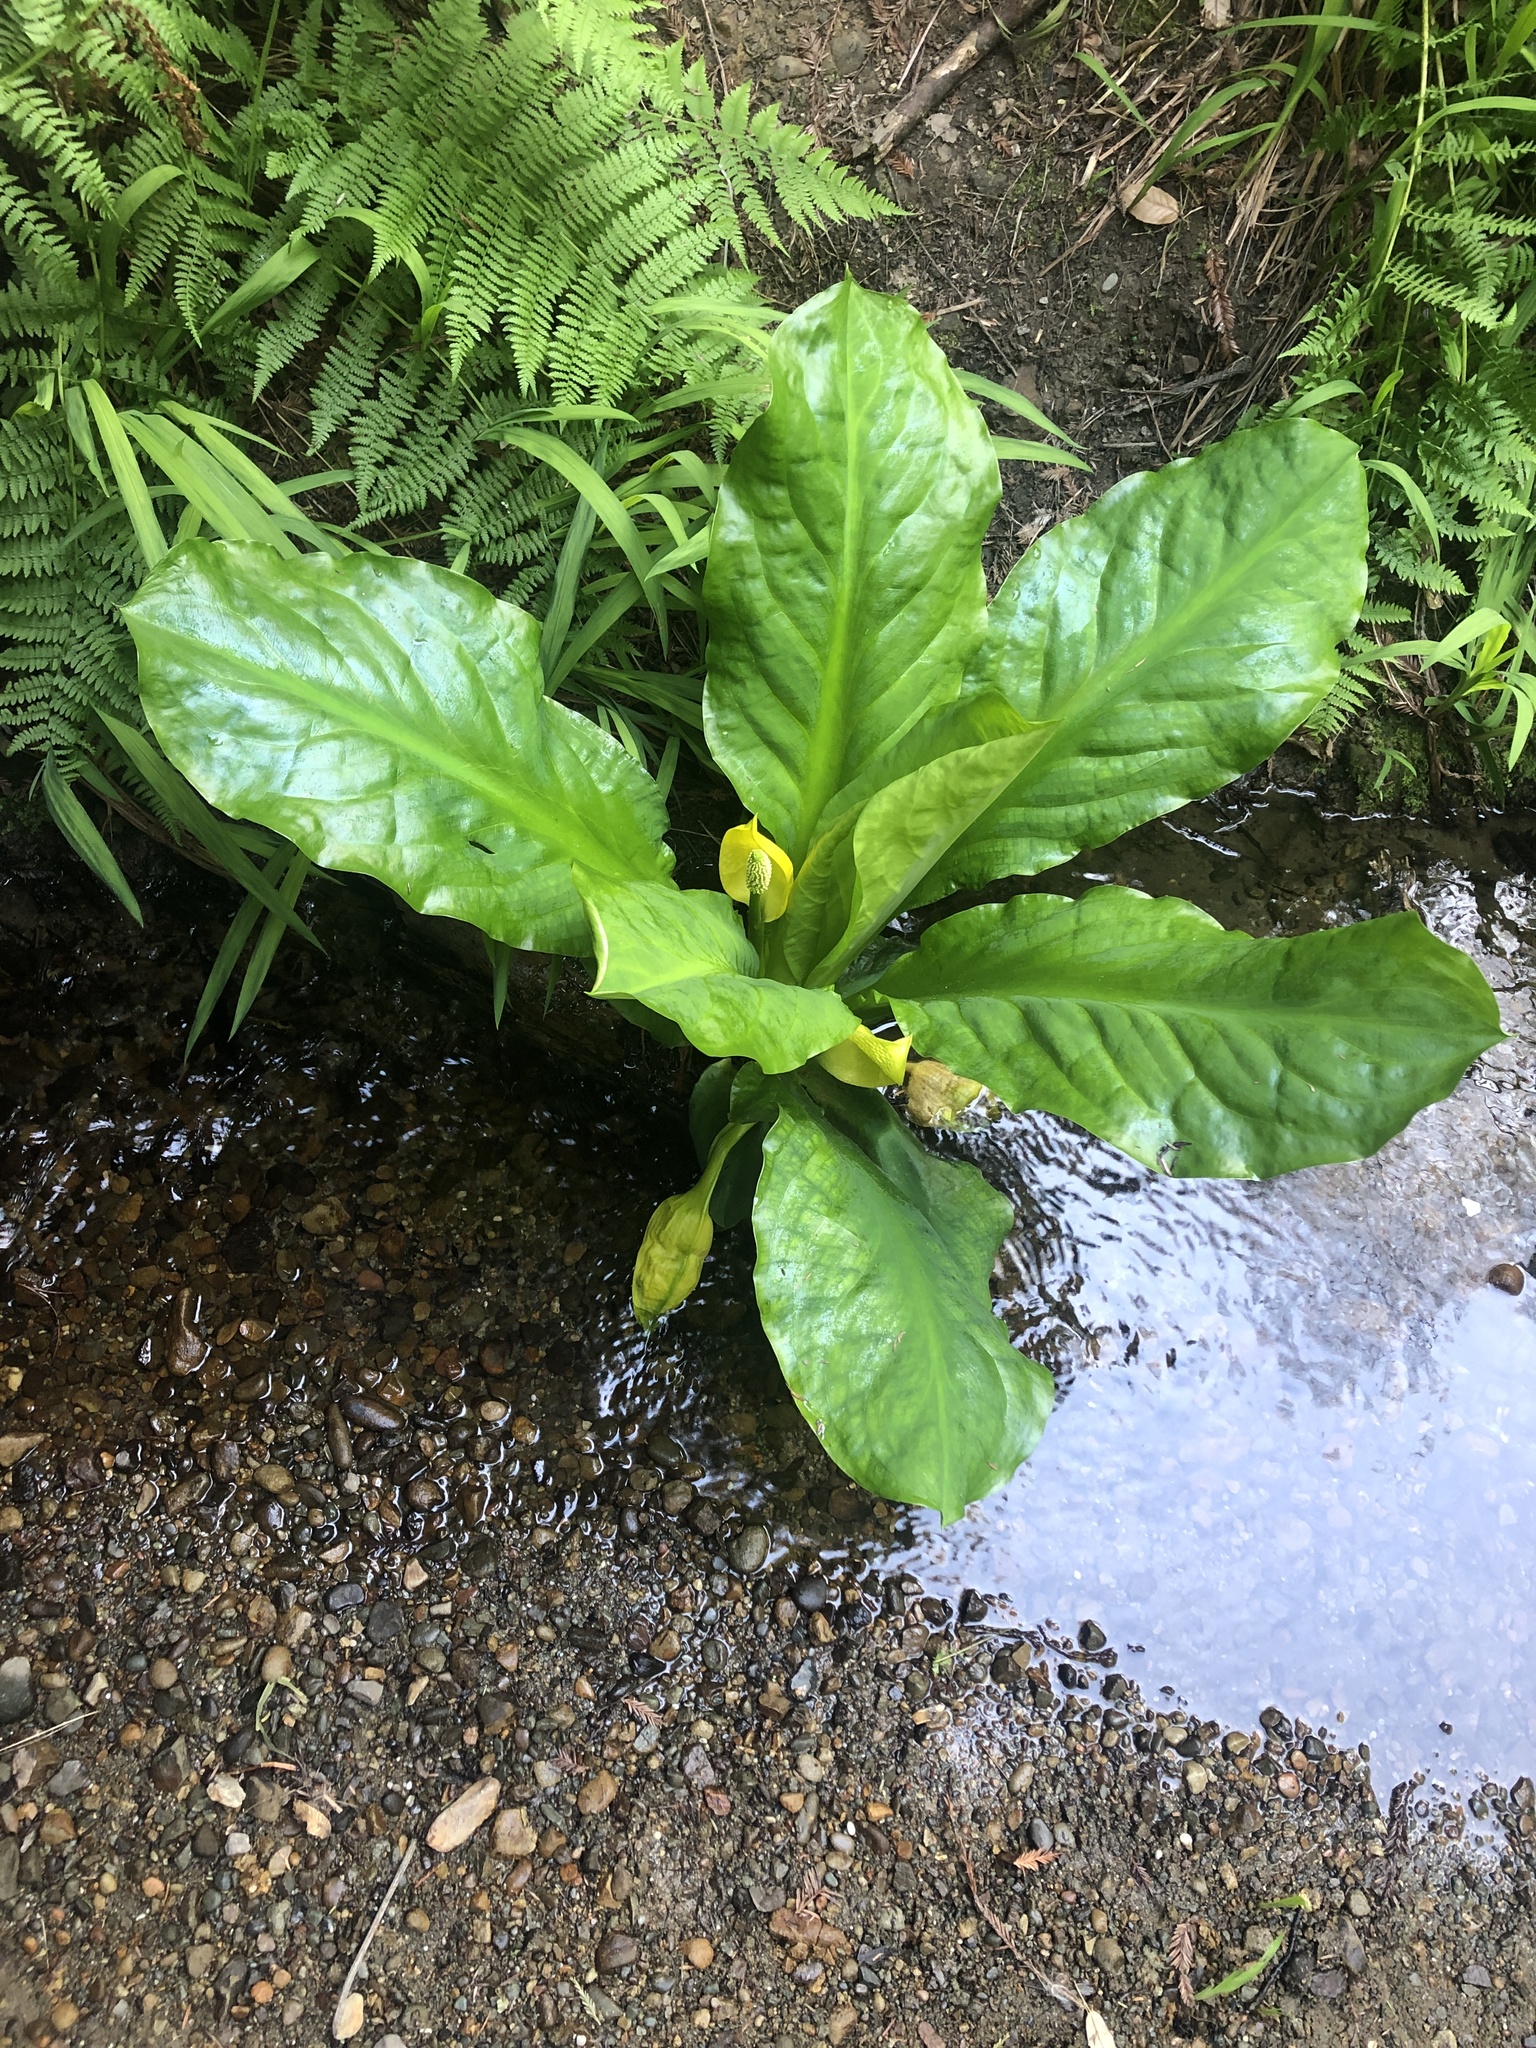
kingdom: Plantae
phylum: Tracheophyta
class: Liliopsida
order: Alismatales
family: Araceae
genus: Lysichiton
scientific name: Lysichiton americanus
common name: American skunk cabbage
